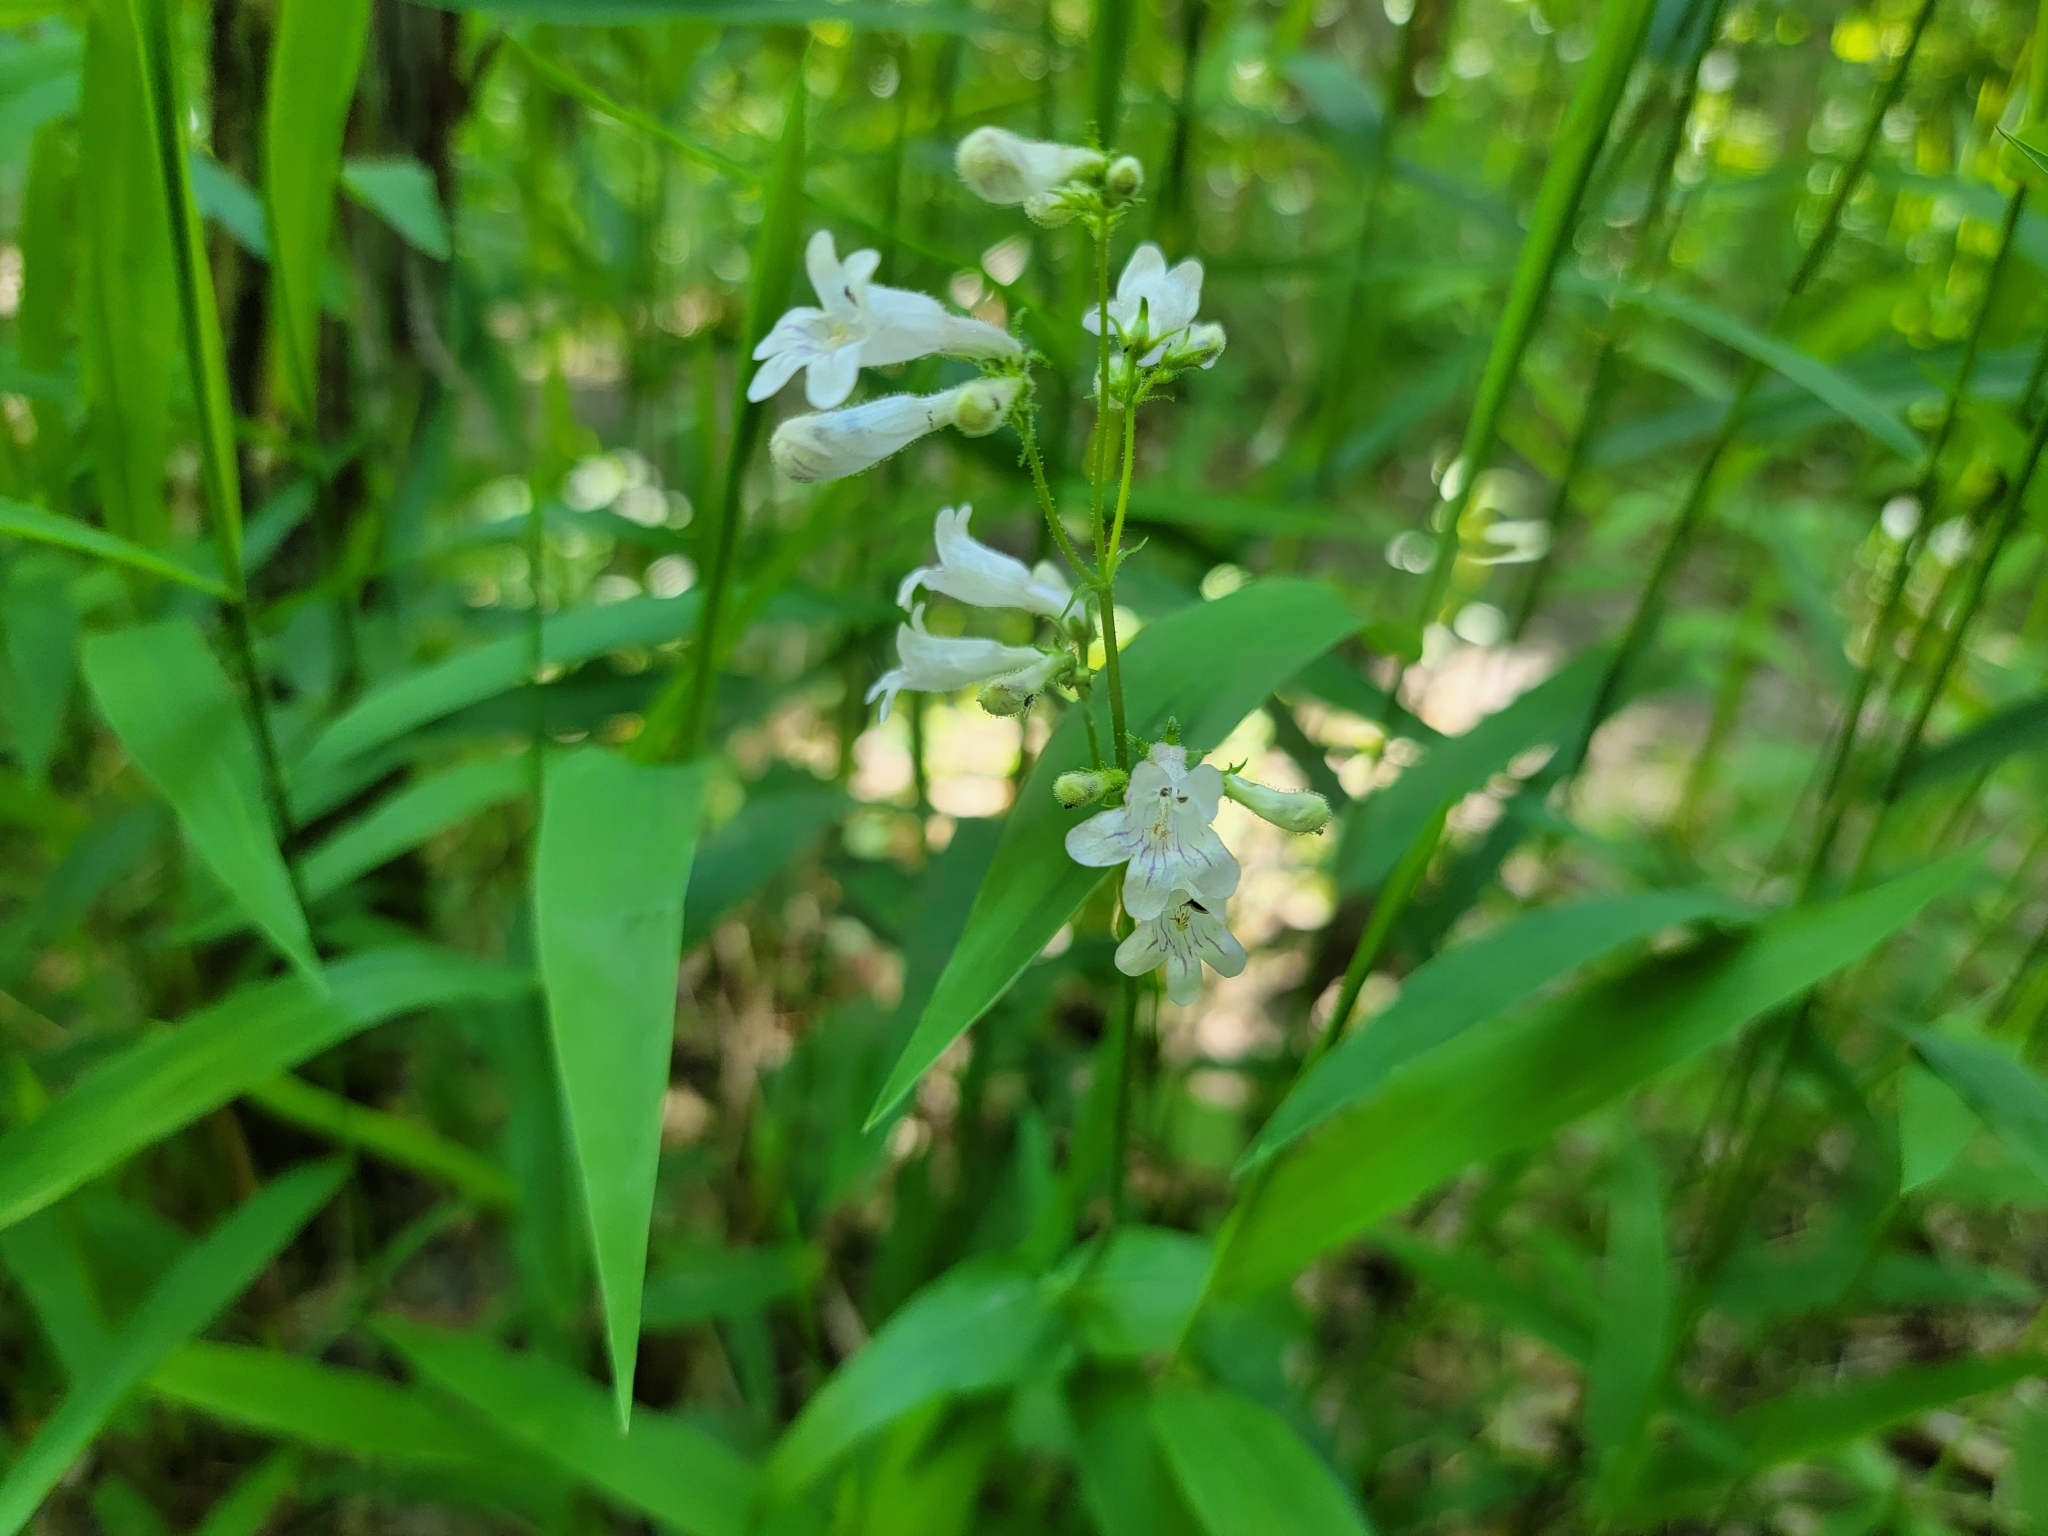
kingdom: Plantae
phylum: Tracheophyta
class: Magnoliopsida
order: Lamiales
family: Plantaginaceae
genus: Penstemon
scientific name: Penstemon digitalis
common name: Foxglove beardtongue
